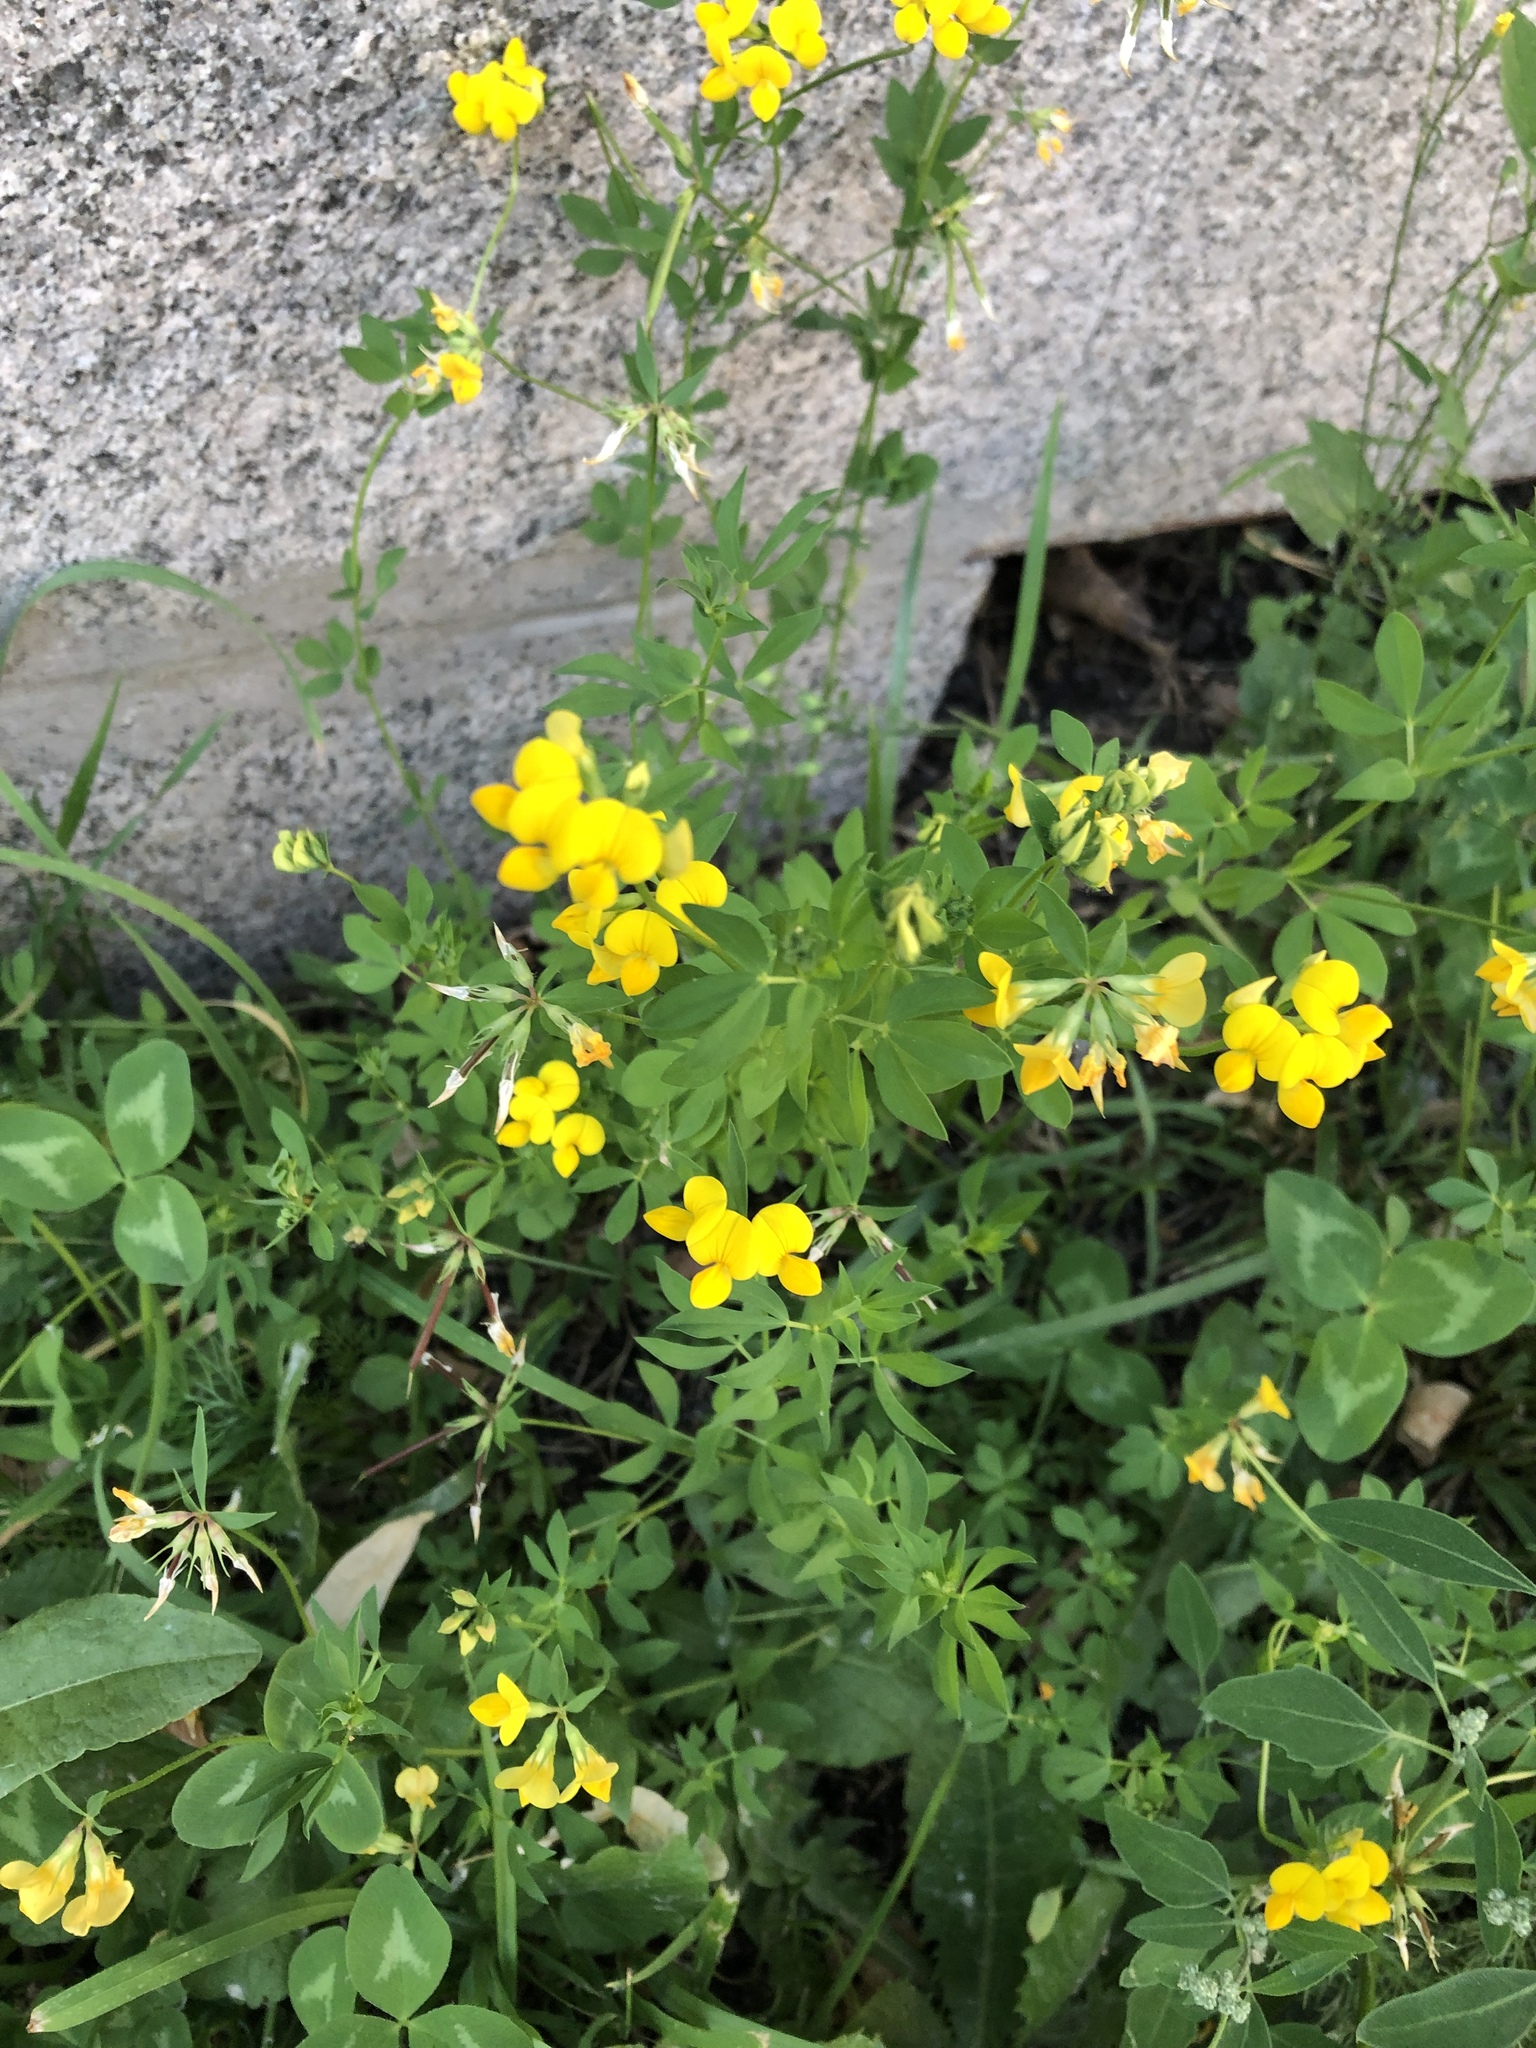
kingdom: Plantae
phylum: Tracheophyta
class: Magnoliopsida
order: Fabales
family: Fabaceae
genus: Lotus
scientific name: Lotus corniculatus
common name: Common bird's-foot-trefoil
